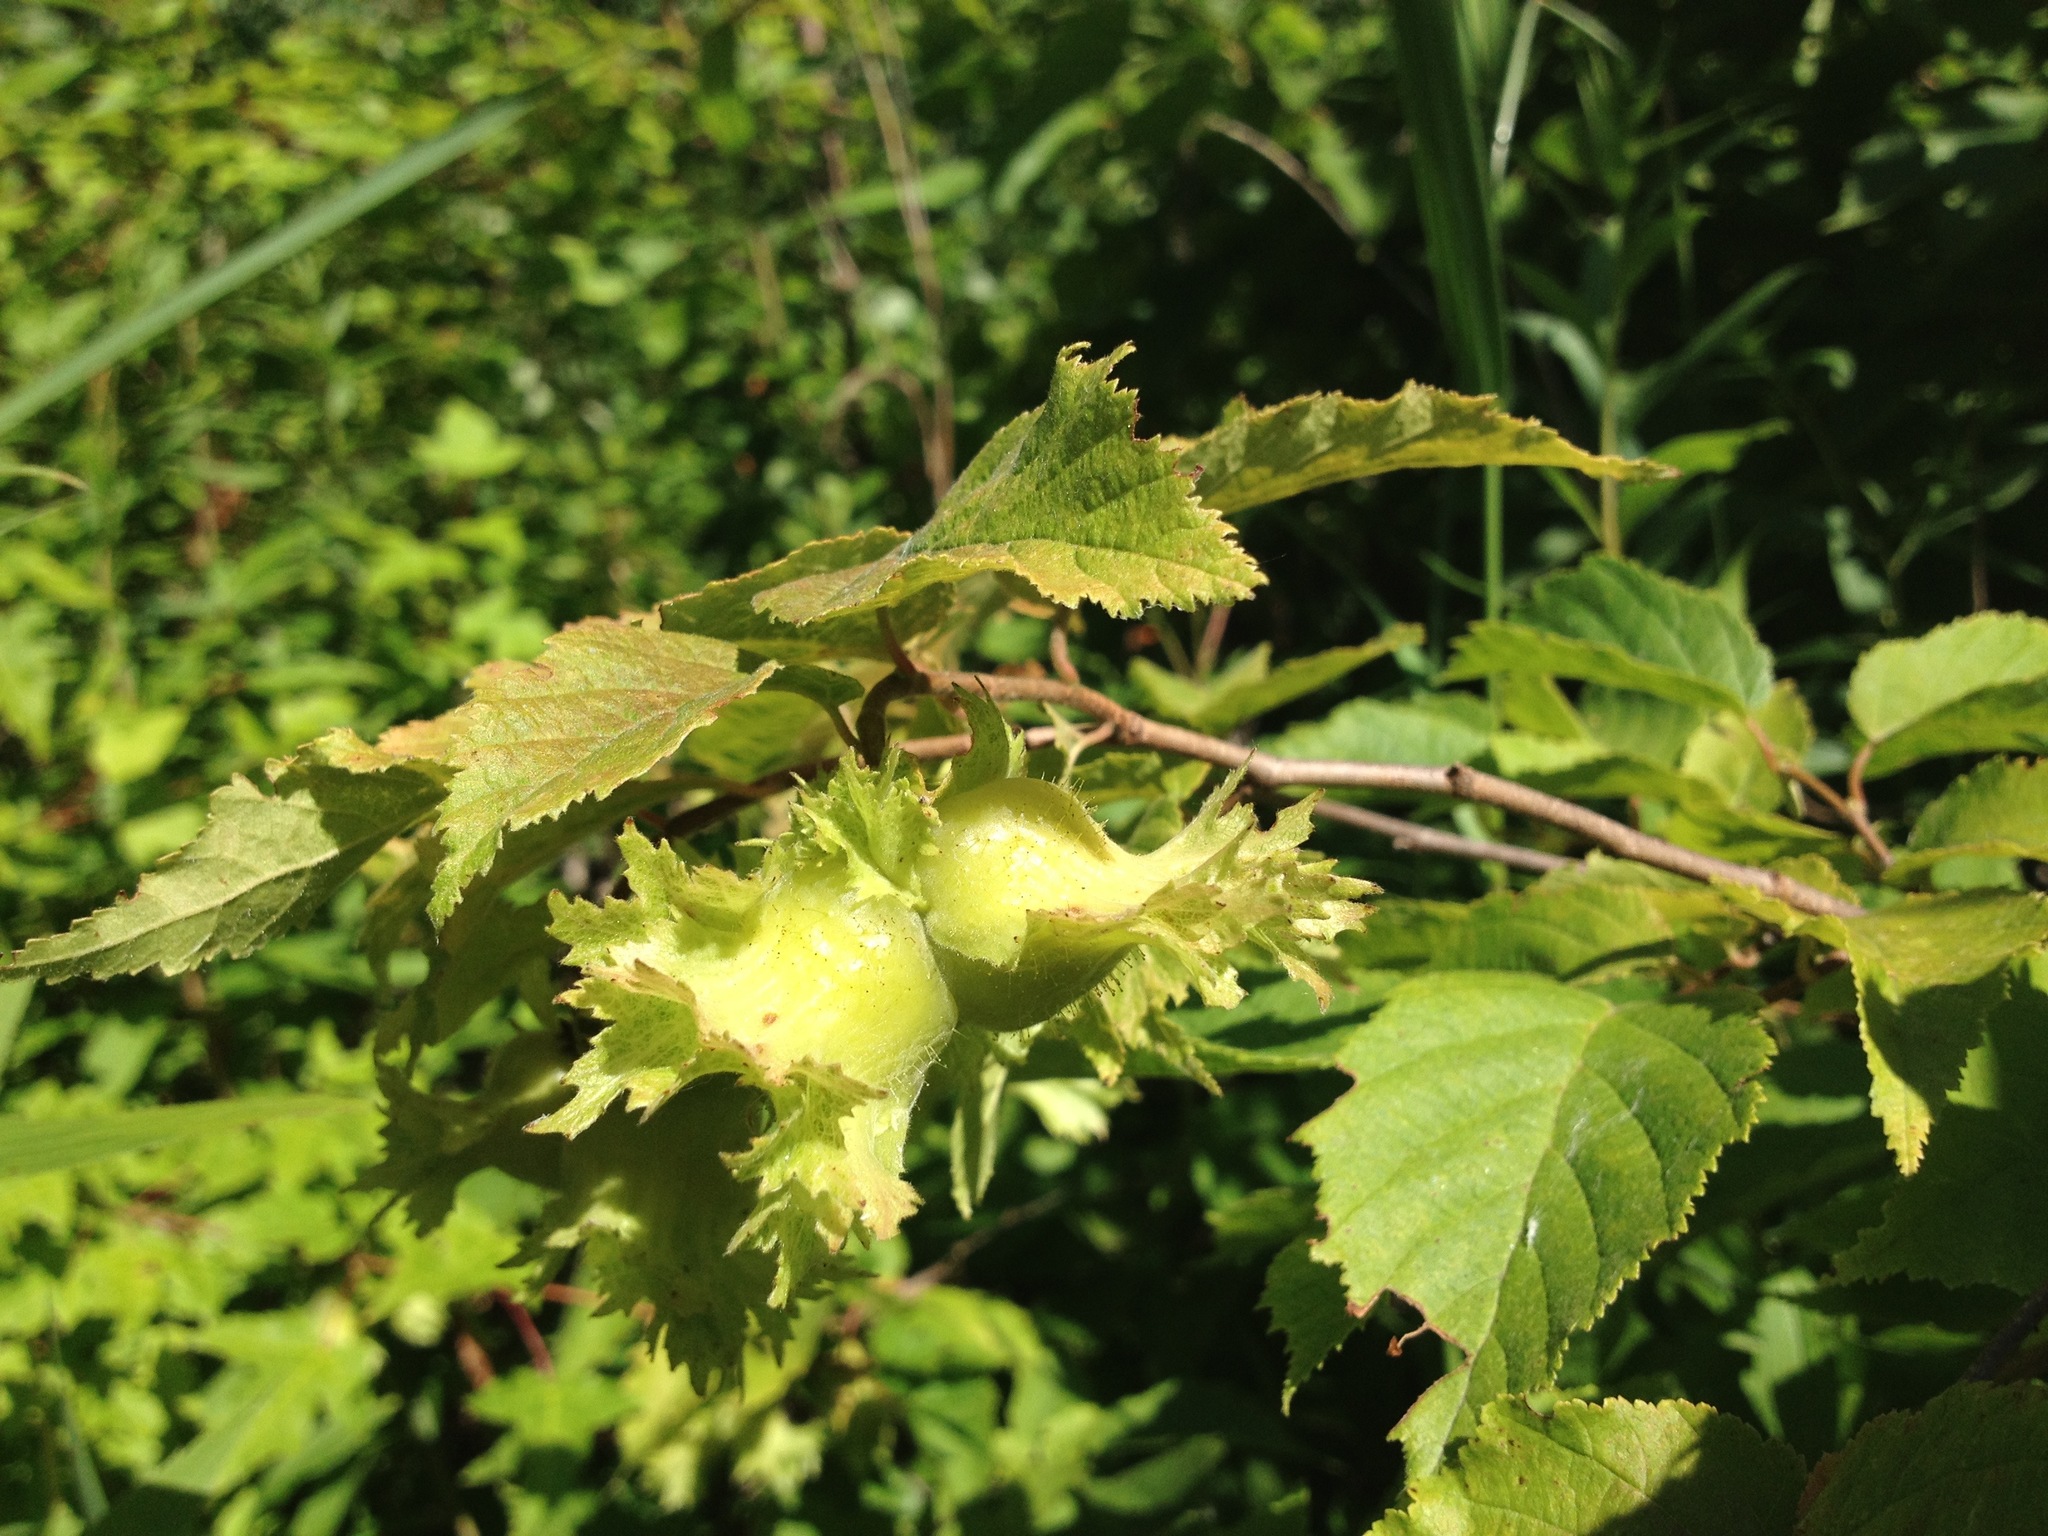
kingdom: Plantae
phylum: Tracheophyta
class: Magnoliopsida
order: Fagales
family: Betulaceae
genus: Corylus
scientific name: Corylus americana
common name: American hazel
